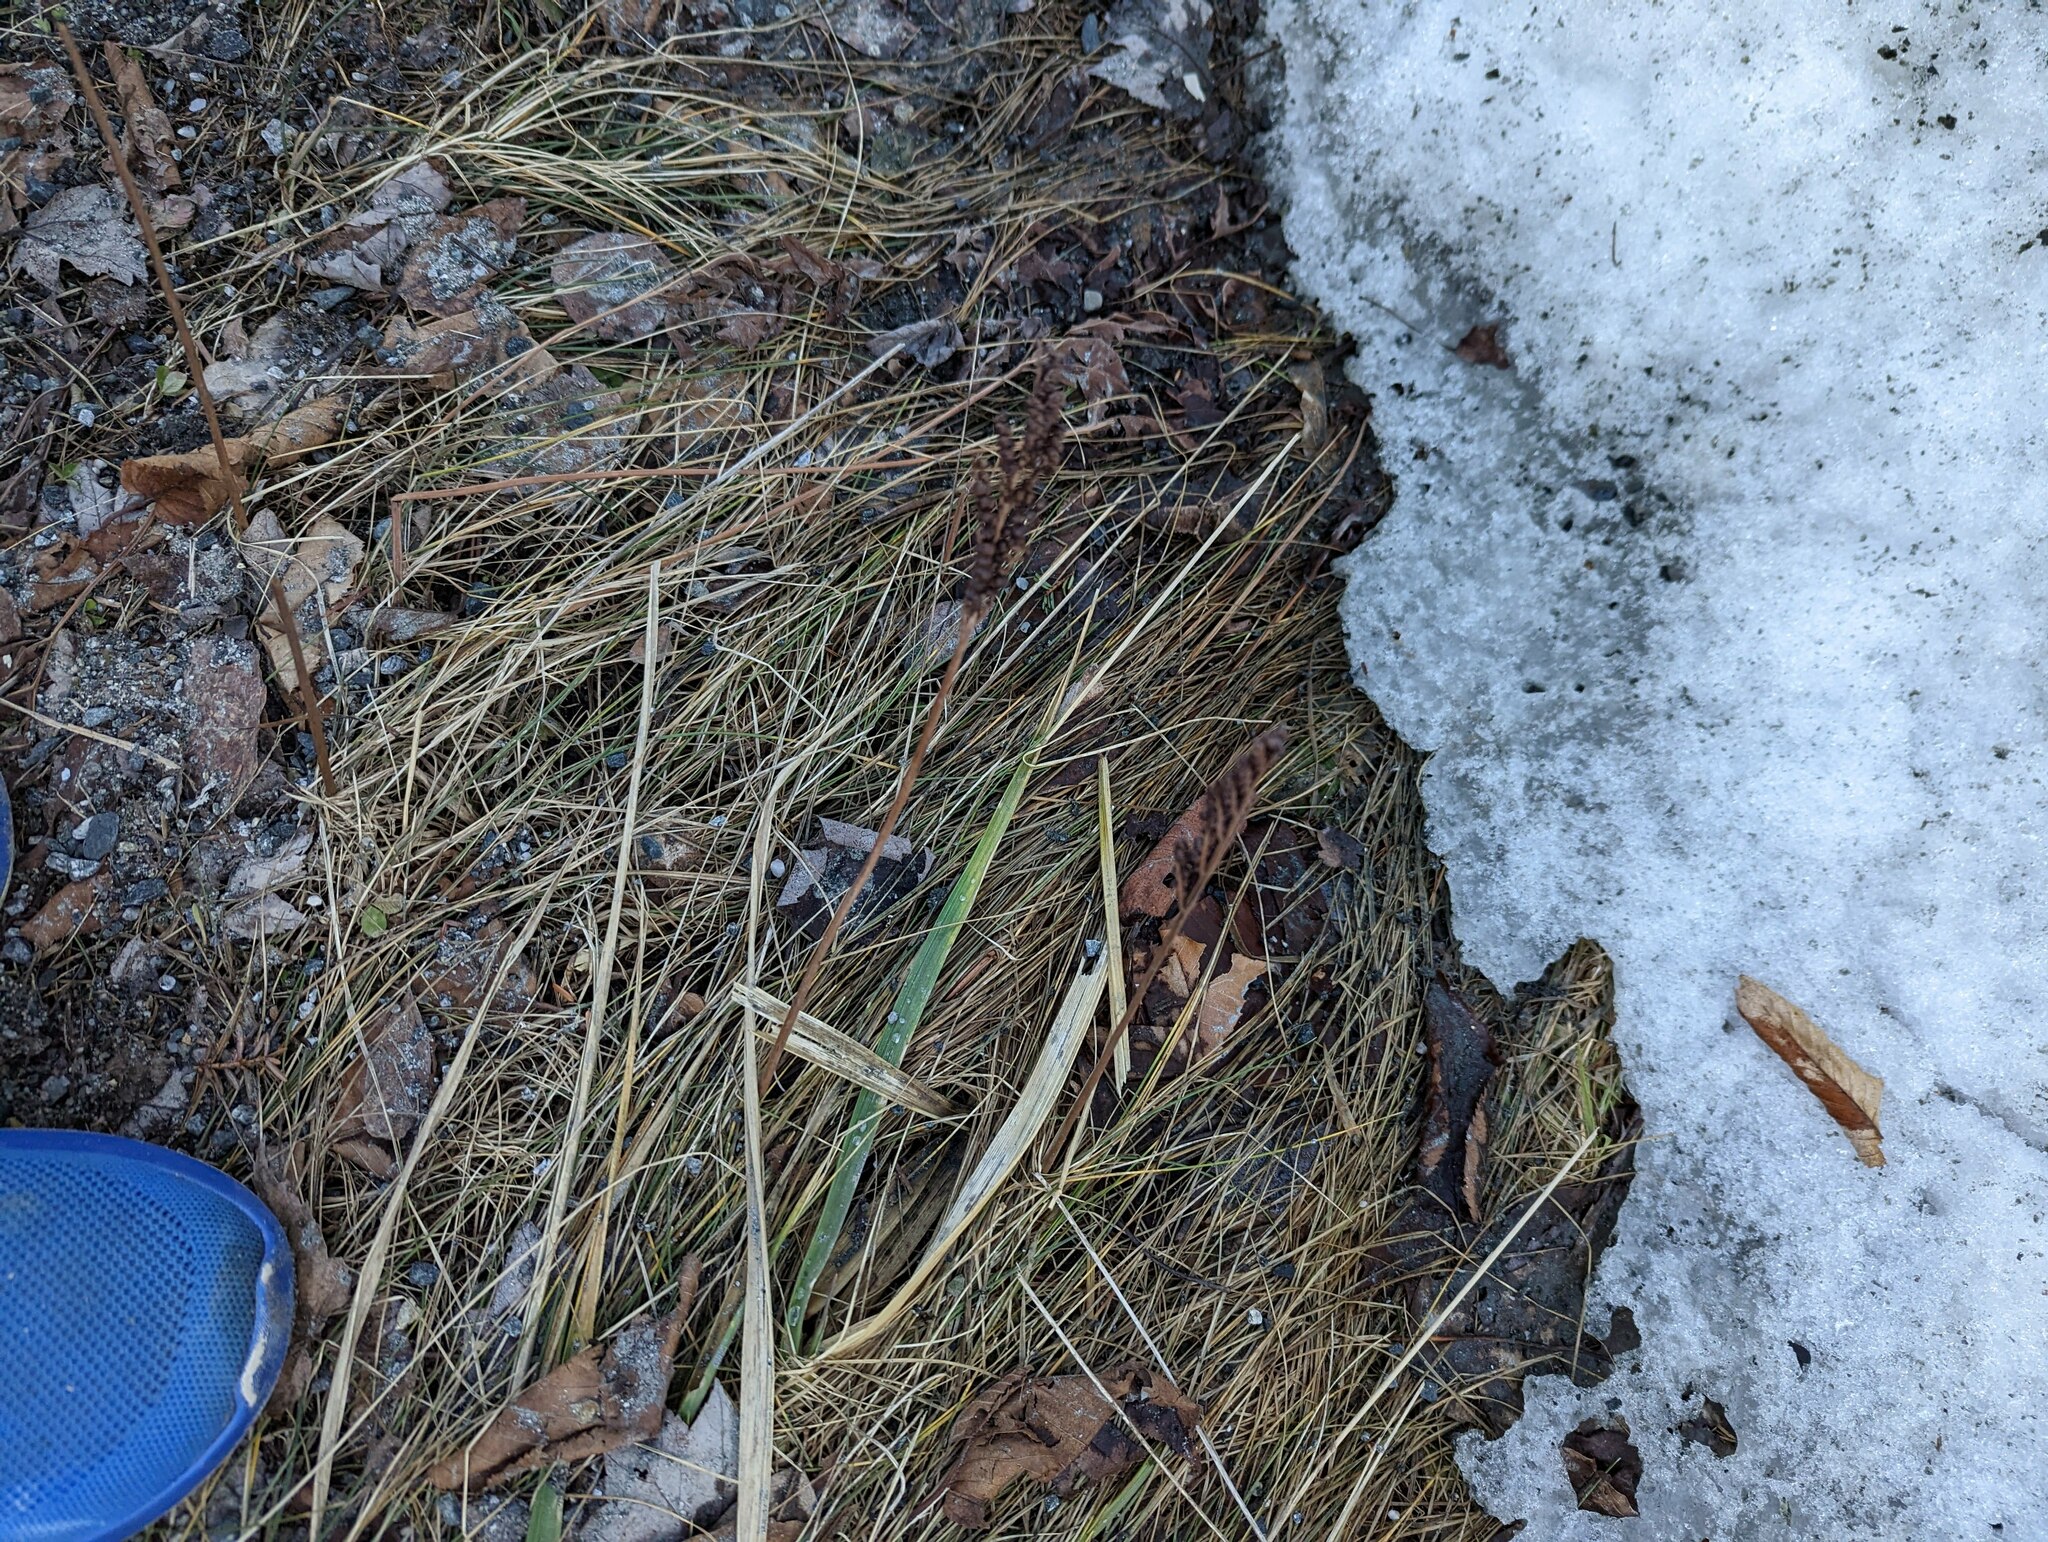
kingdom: Plantae
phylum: Tracheophyta
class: Polypodiopsida
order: Polypodiales
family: Onocleaceae
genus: Onoclea
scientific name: Onoclea sensibilis
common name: Sensitive fern
